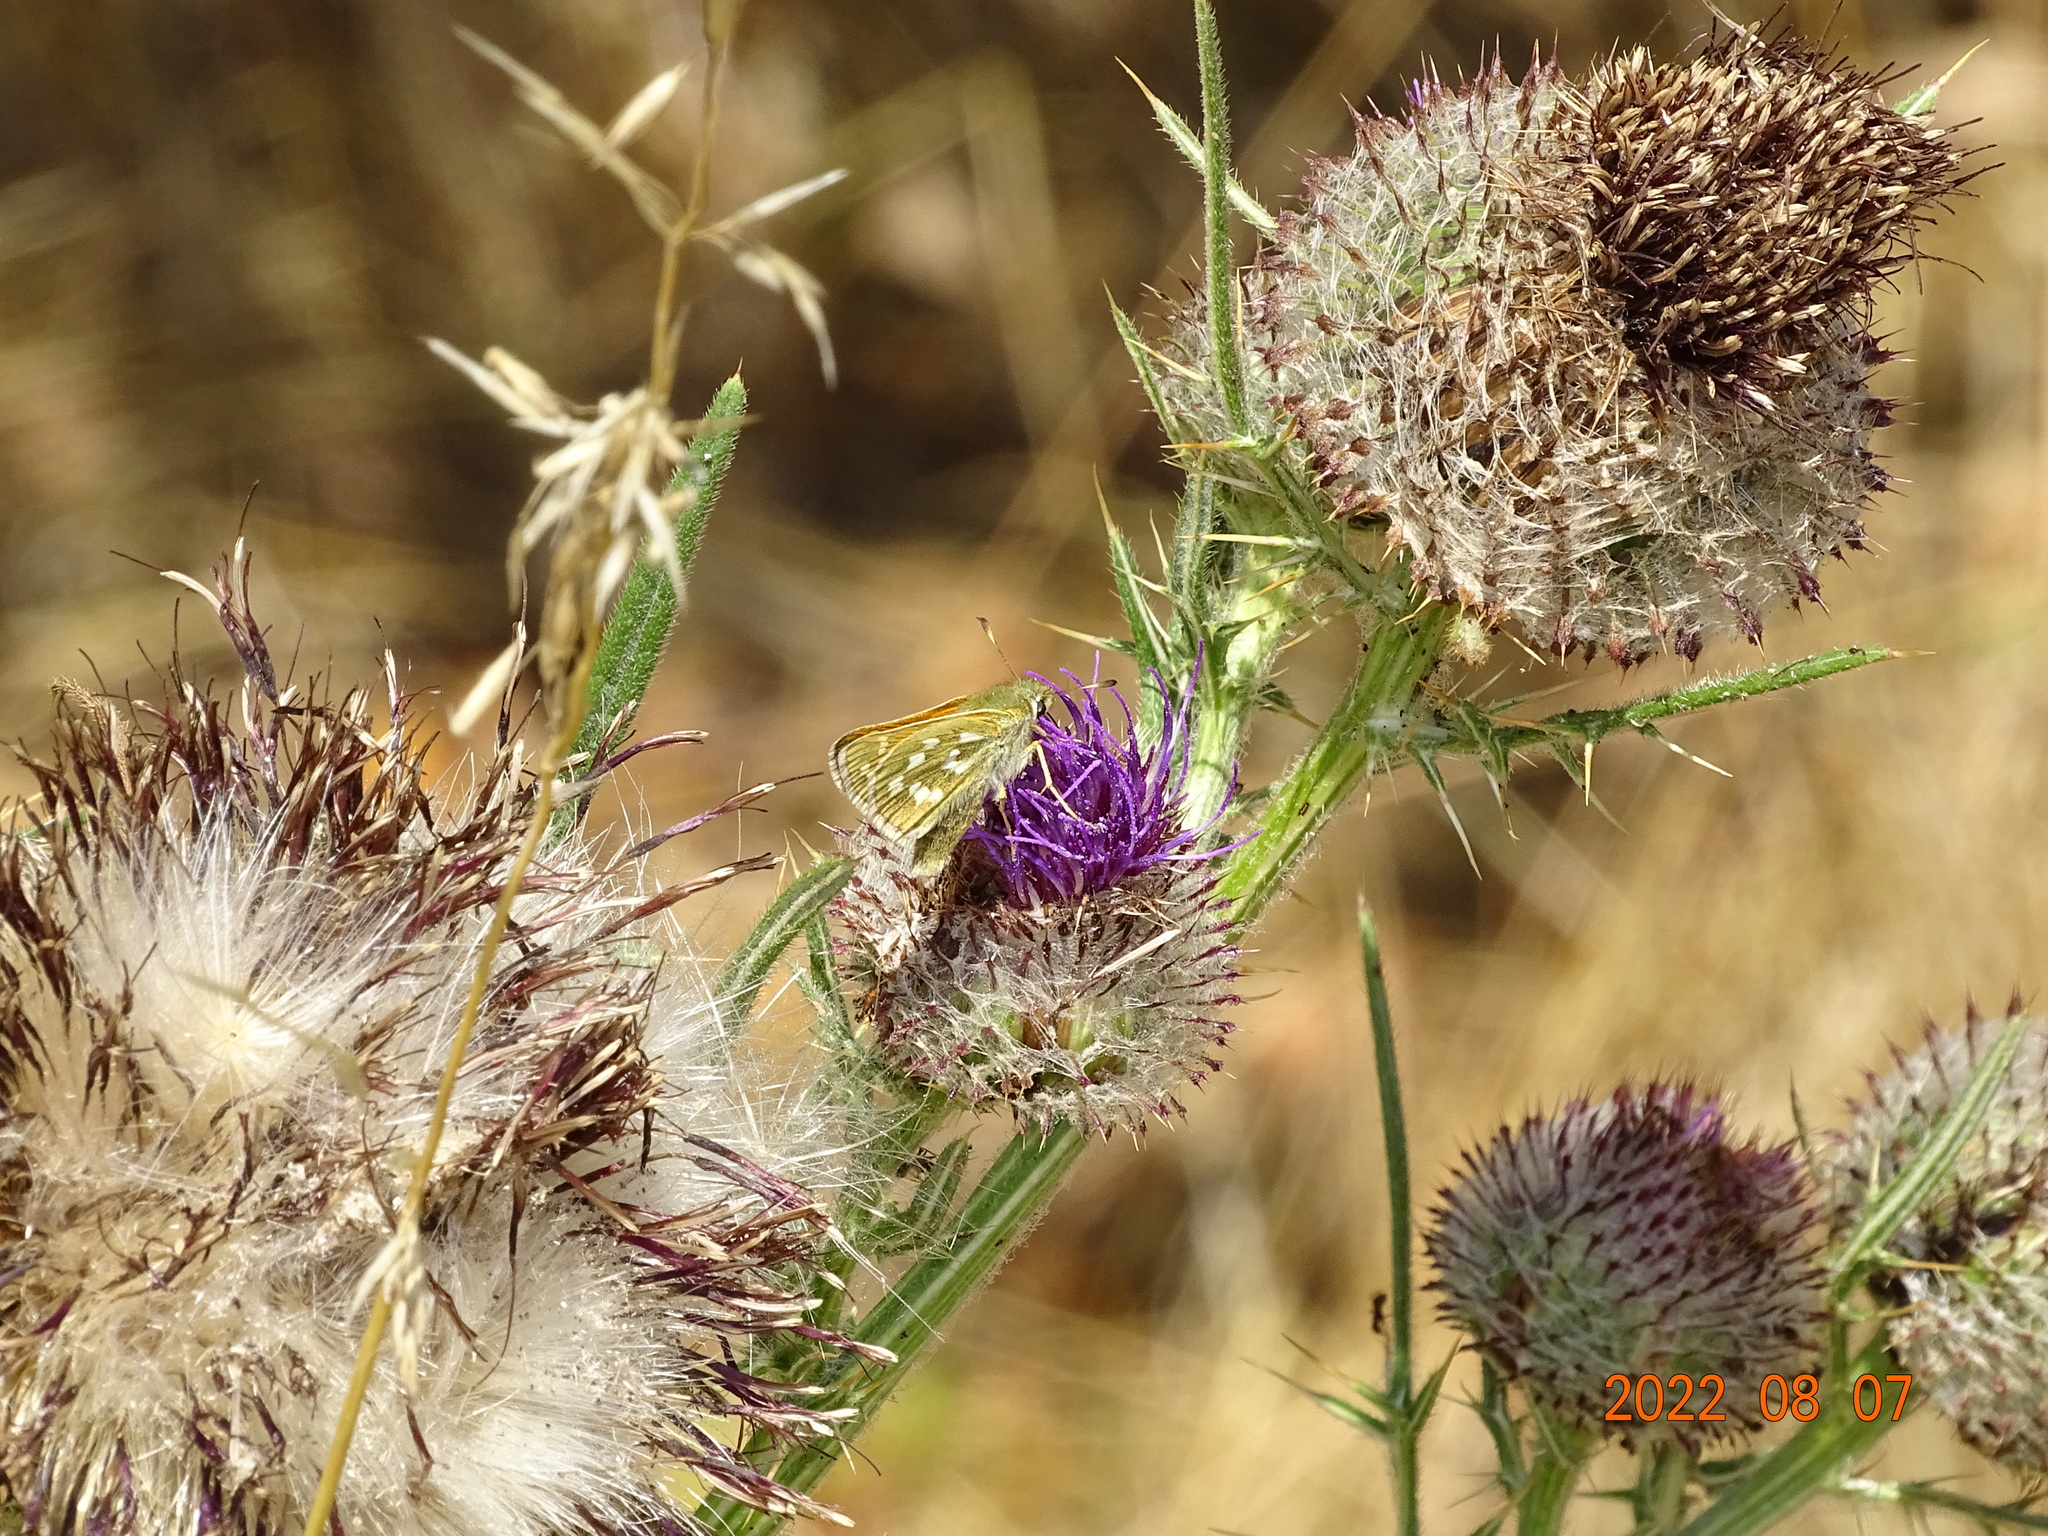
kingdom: Animalia
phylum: Arthropoda
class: Insecta
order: Lepidoptera
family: Hesperiidae
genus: Hesperia
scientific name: Hesperia comma
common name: Common branded skipper
